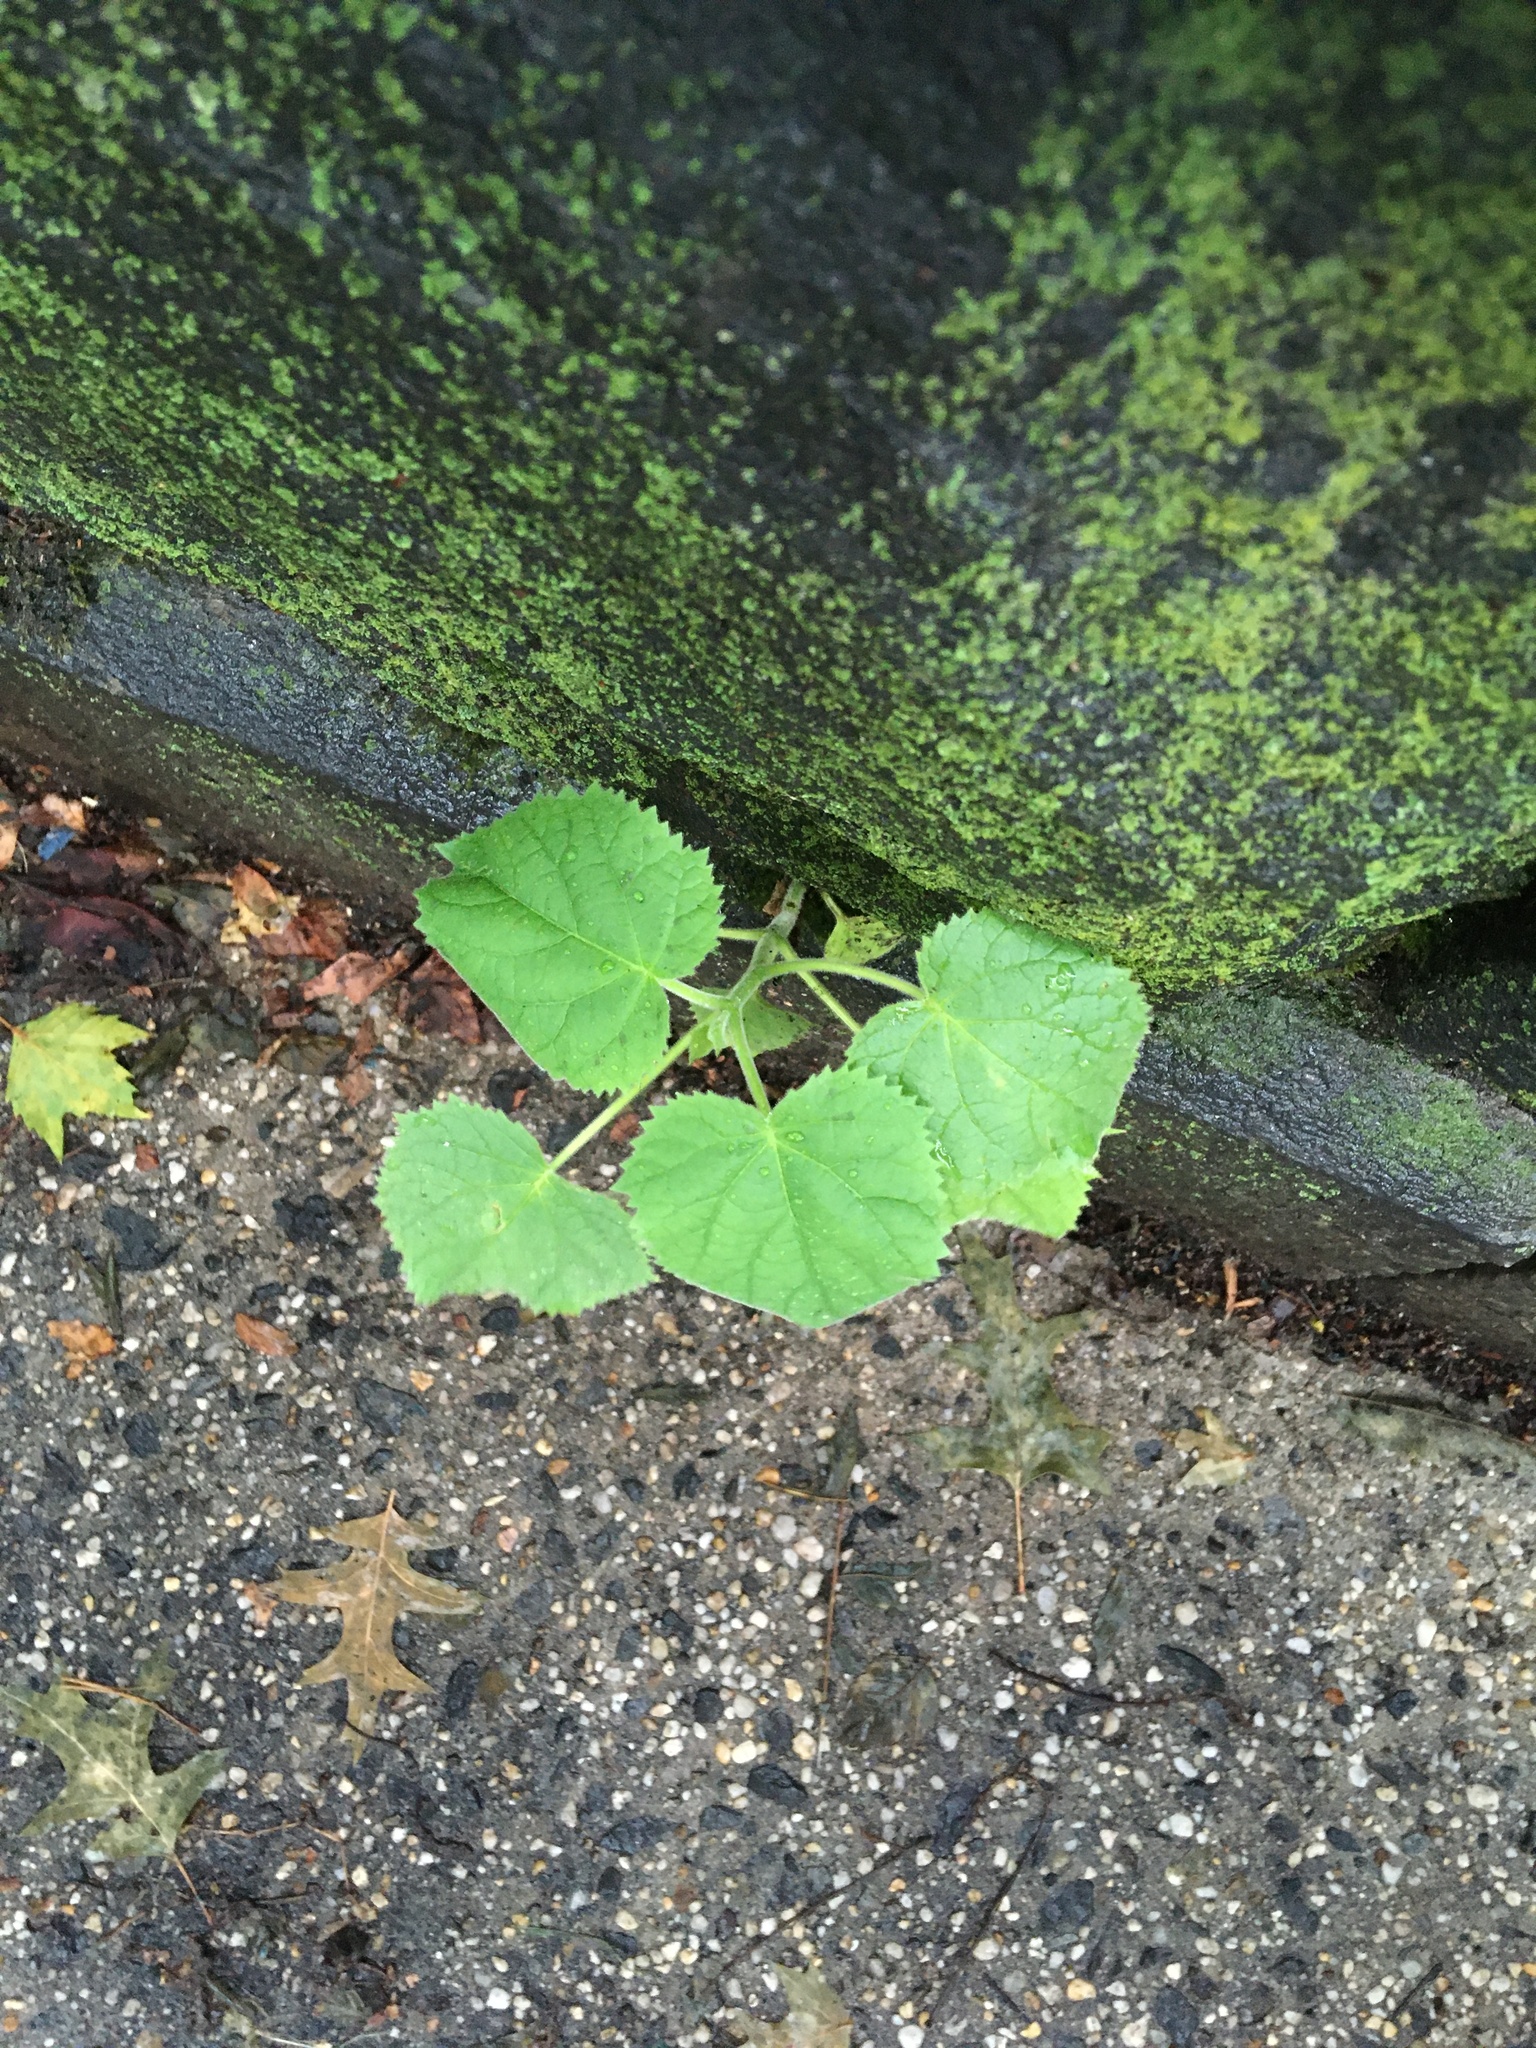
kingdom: Plantae
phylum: Tracheophyta
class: Magnoliopsida
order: Lamiales
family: Paulowniaceae
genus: Paulownia
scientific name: Paulownia tomentosa
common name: Foxglove-tree
